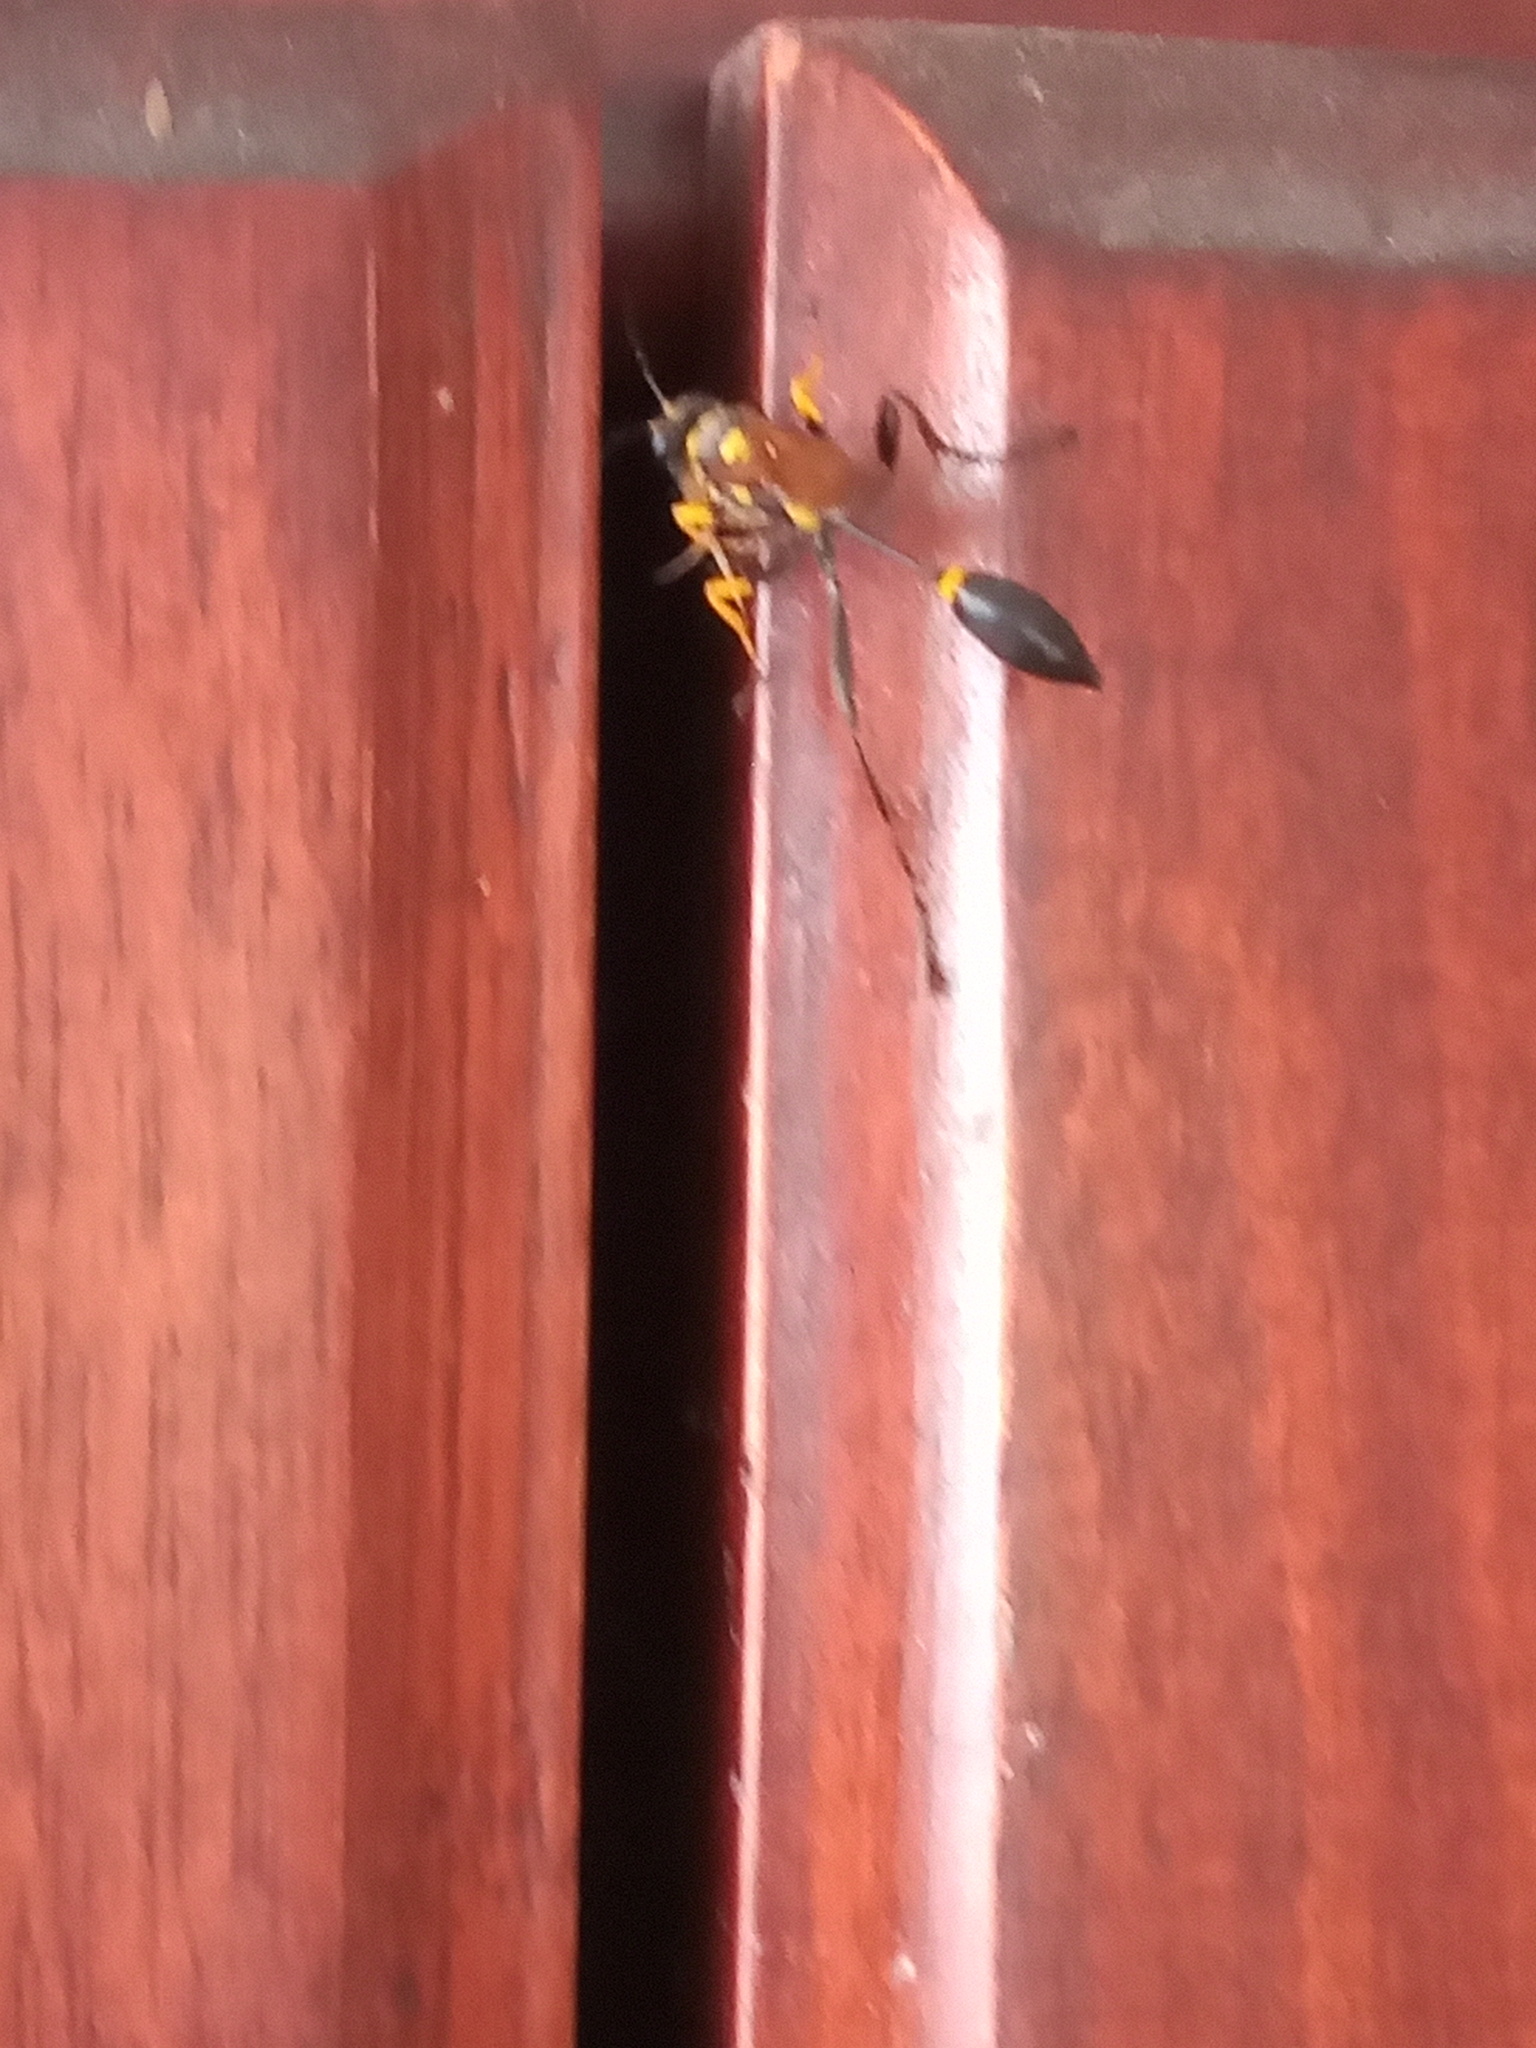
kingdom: Animalia
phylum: Arthropoda
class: Insecta
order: Hymenoptera
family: Sphecidae
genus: Sceliphron
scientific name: Sceliphron assimile
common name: Clayman's mud dauber
